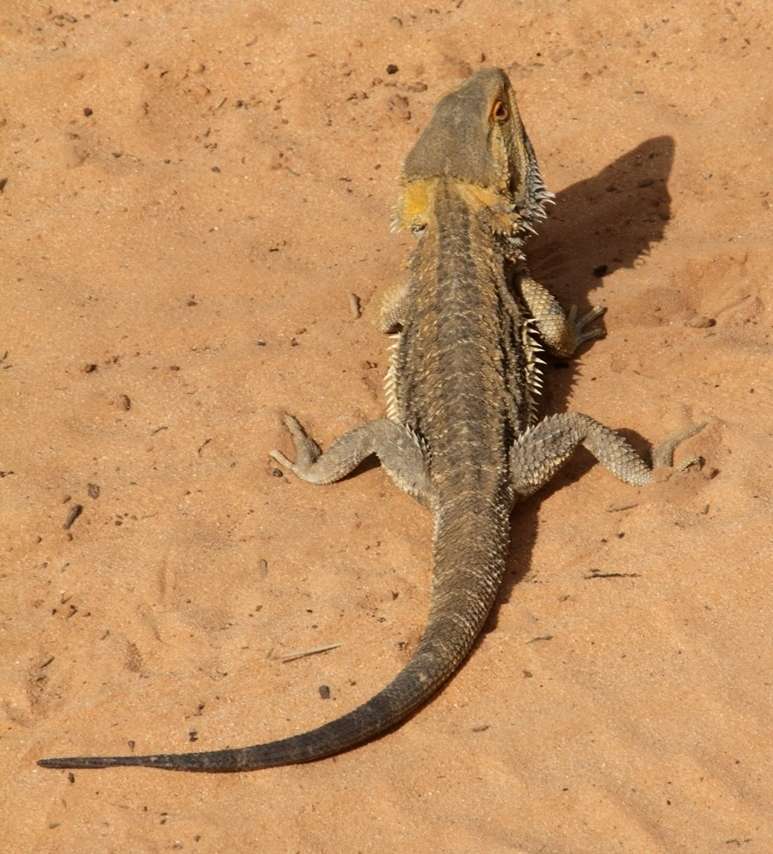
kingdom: Animalia
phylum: Chordata
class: Squamata
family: Agamidae
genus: Pogona
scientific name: Pogona vitticeps
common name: Central bearded dragon
